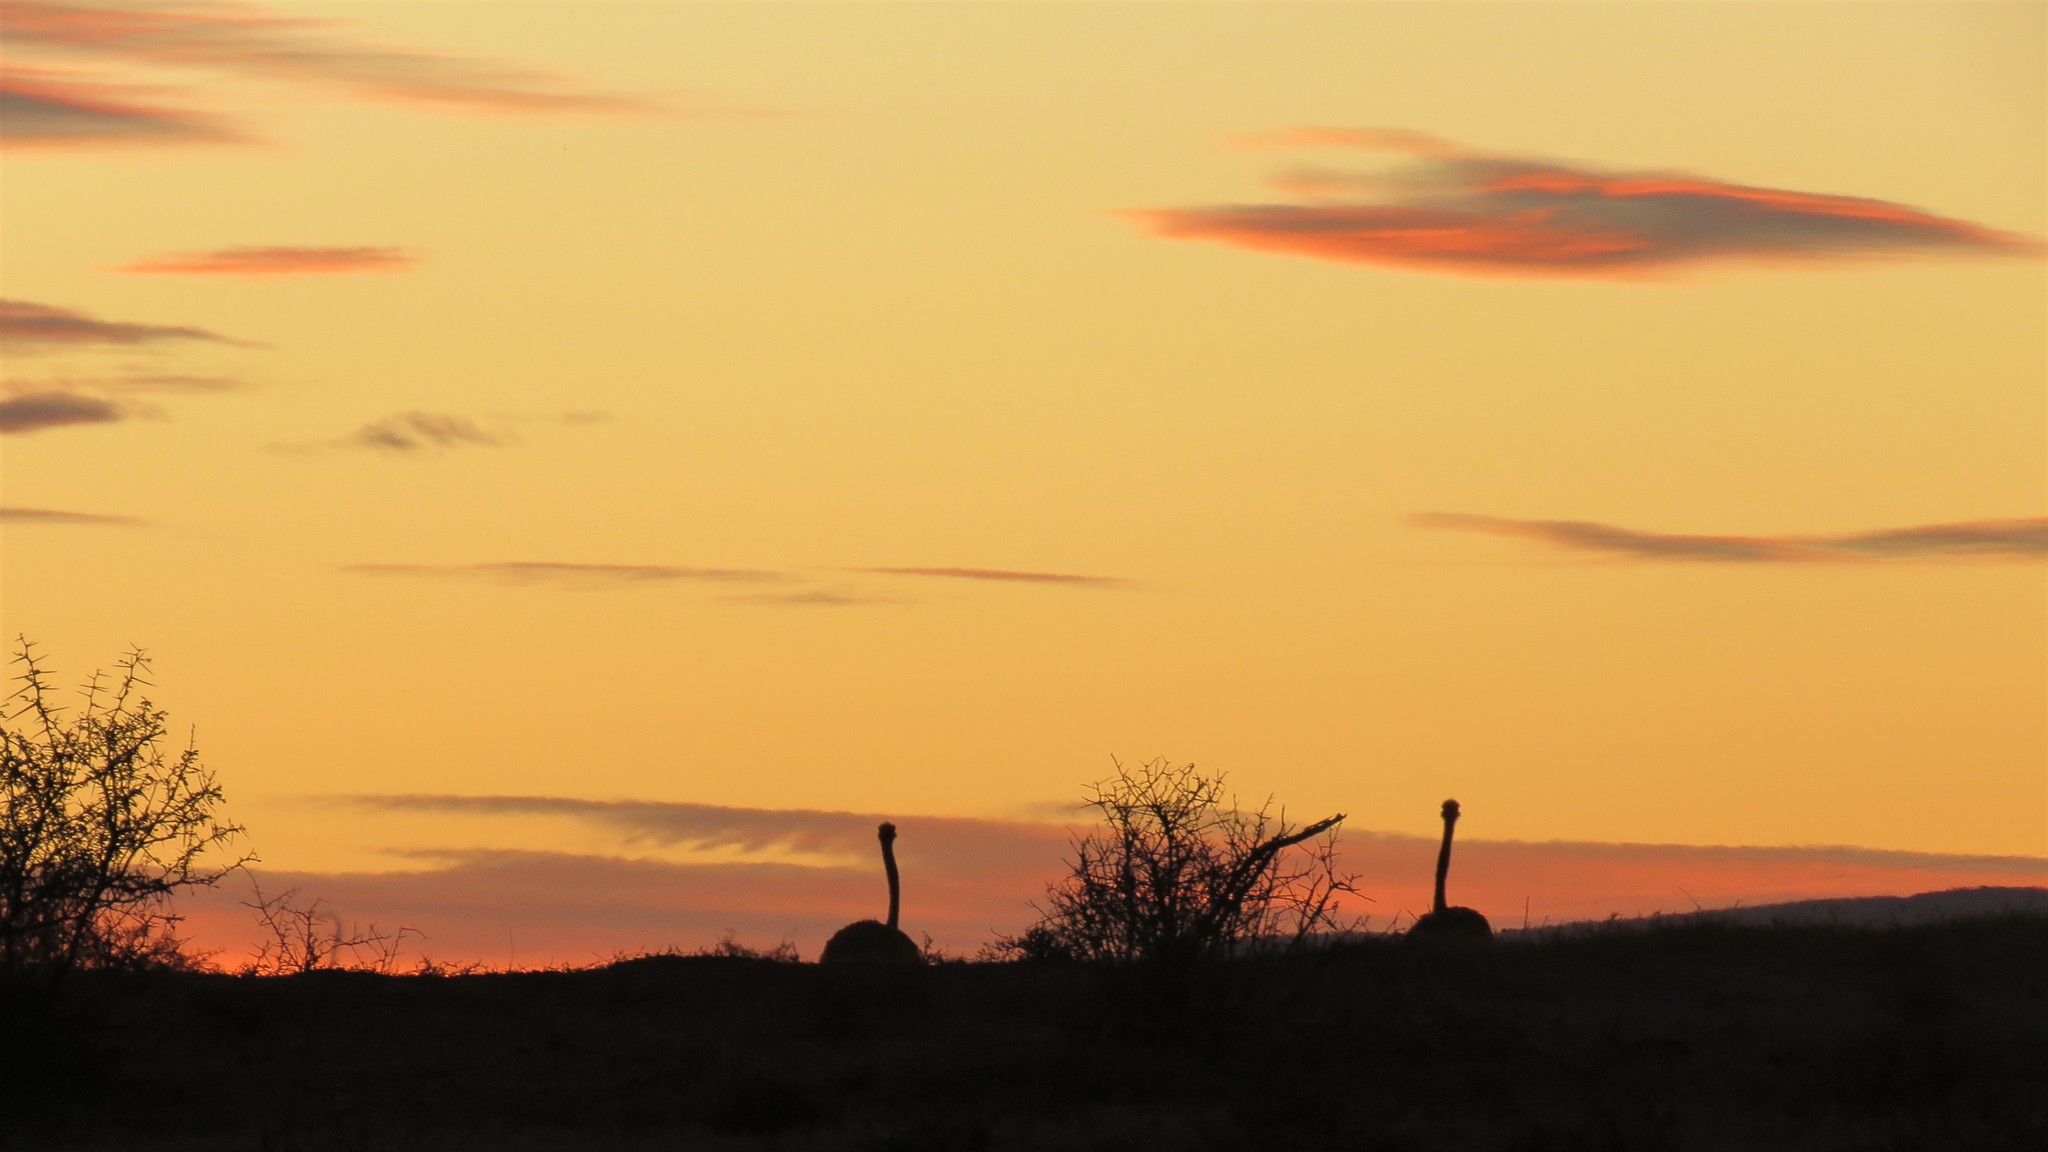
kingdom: Animalia
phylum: Chordata
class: Aves
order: Struthioniformes
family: Struthionidae
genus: Struthio
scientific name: Struthio camelus
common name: Common ostrich
